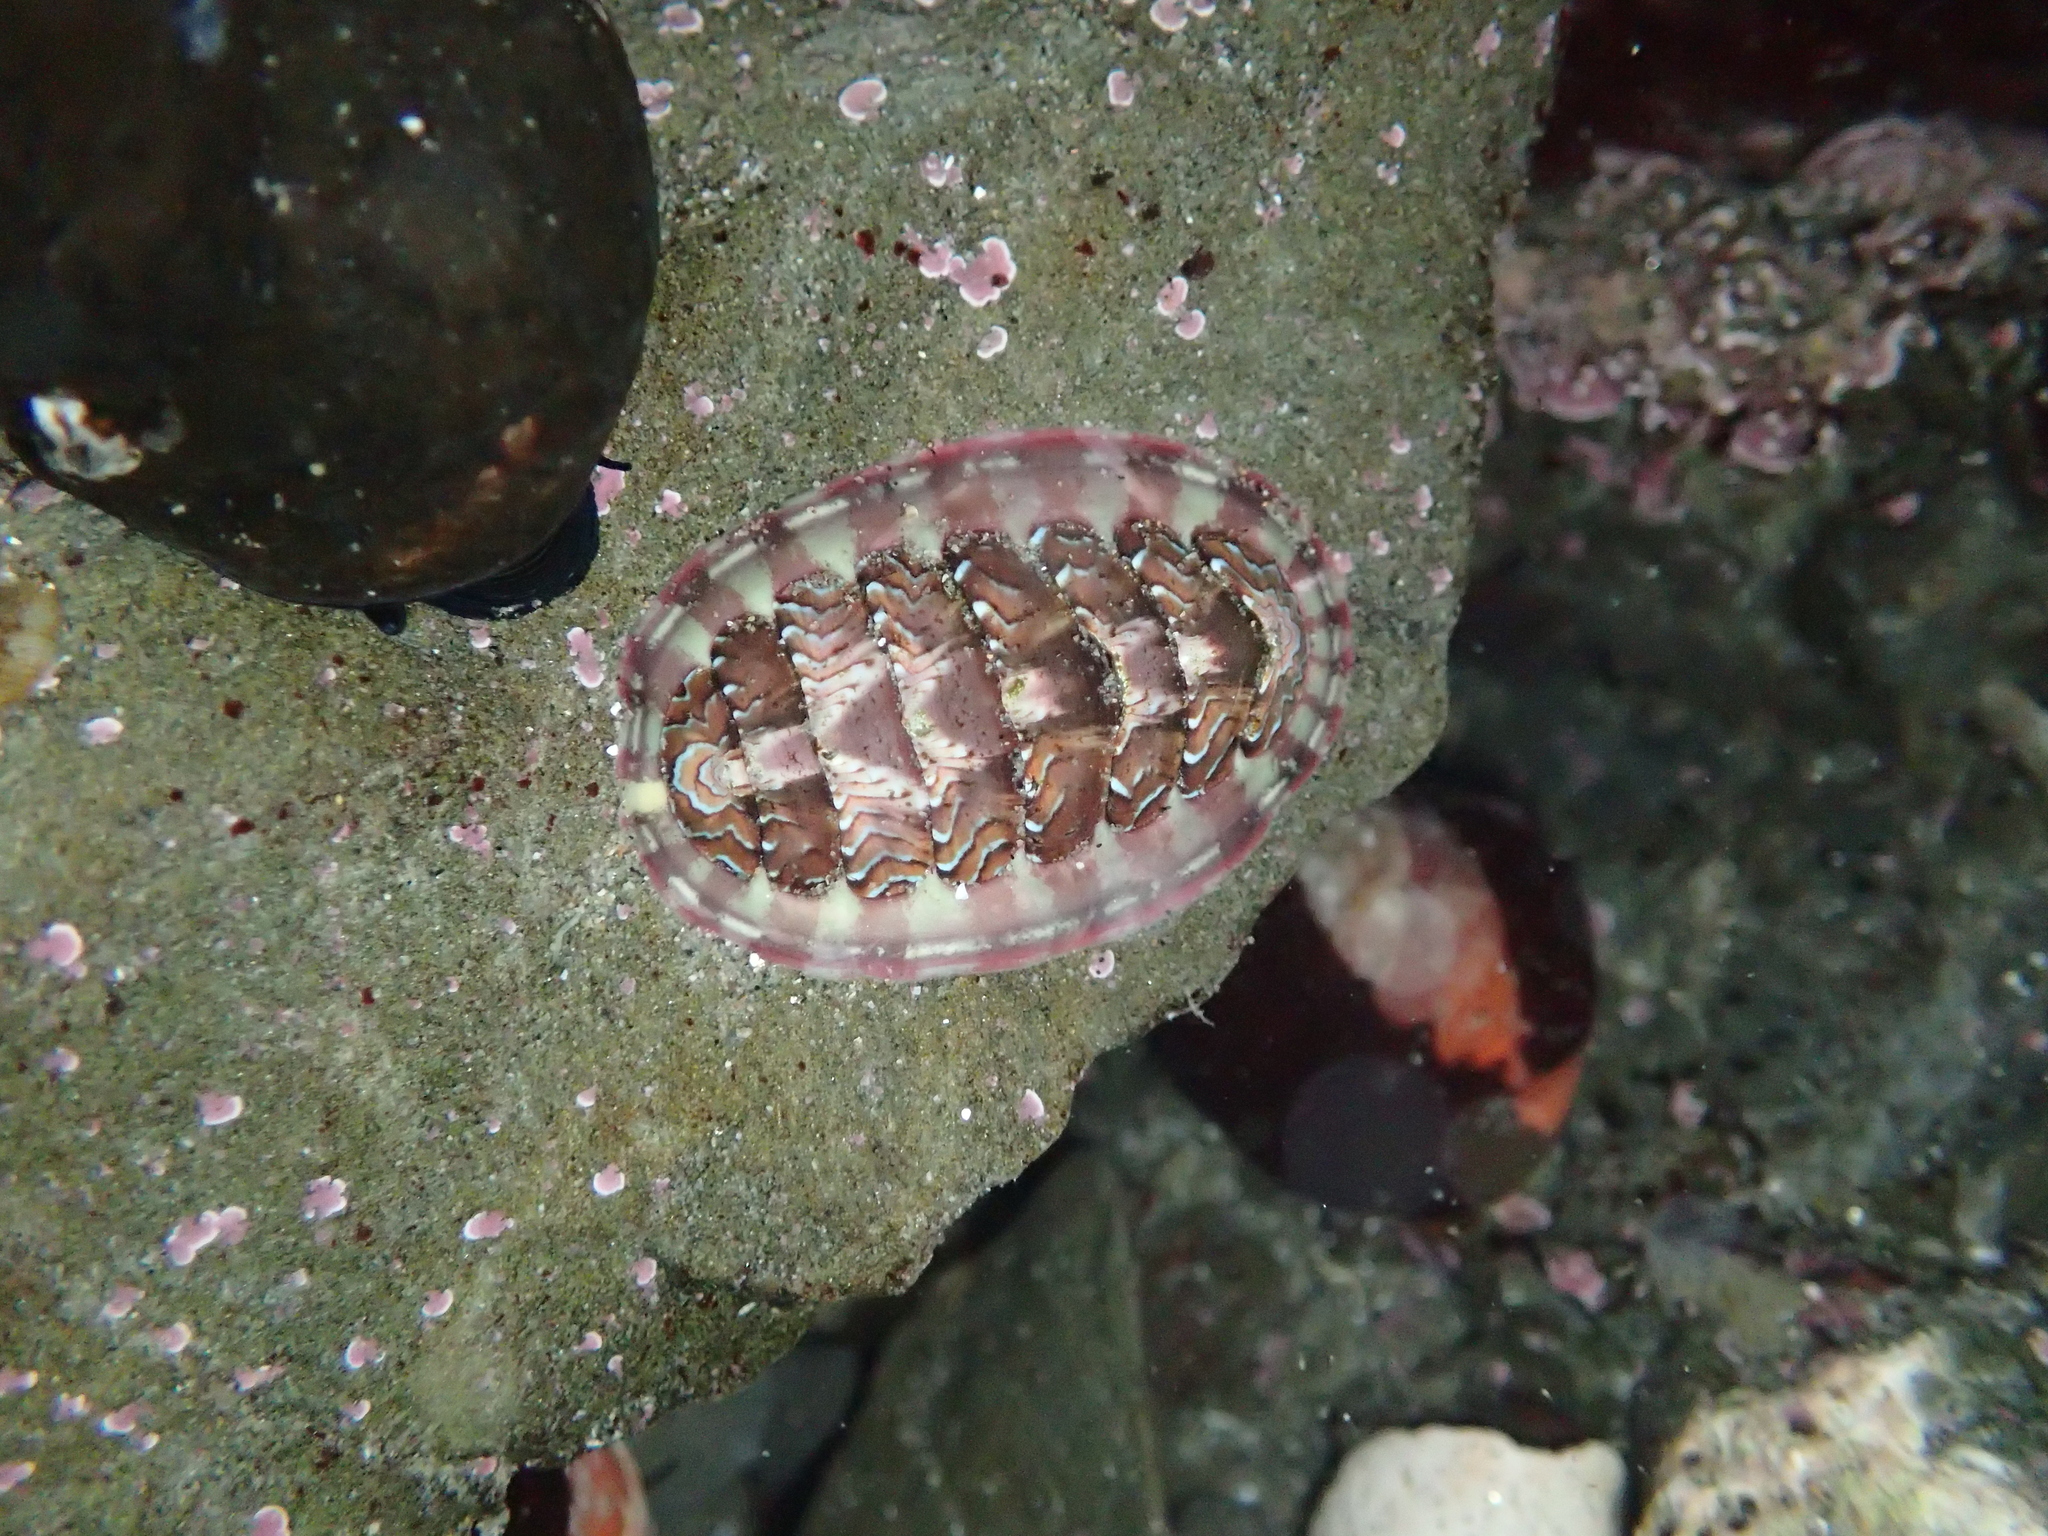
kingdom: Animalia
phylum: Mollusca
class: Polyplacophora
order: Chitonida
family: Tonicellidae
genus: Tonicella
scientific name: Tonicella lokii
